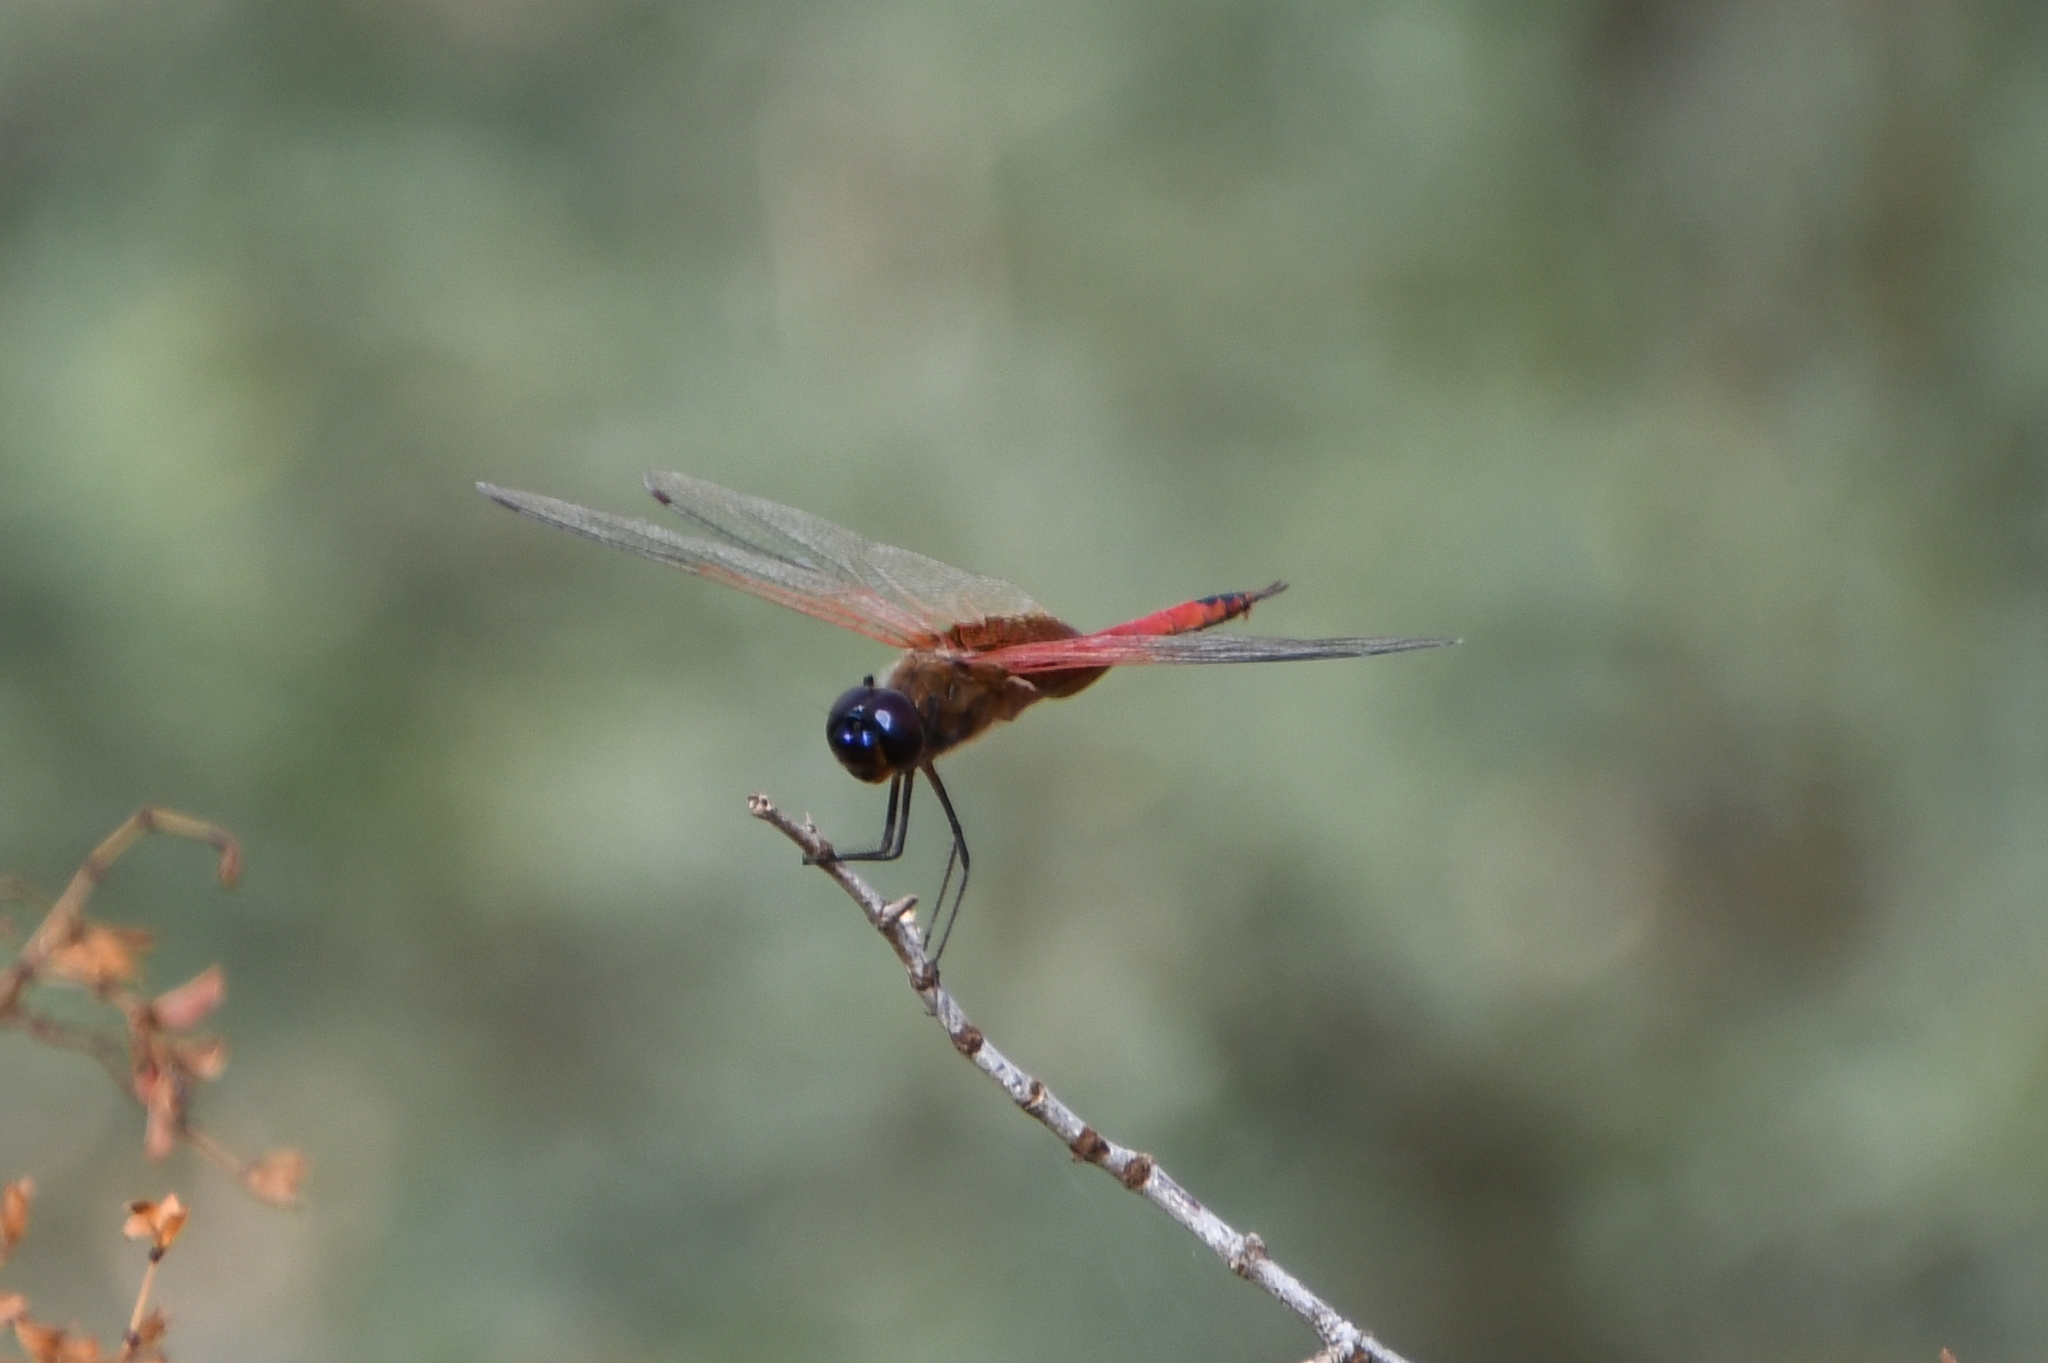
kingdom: Animalia
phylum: Arthropoda
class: Insecta
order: Odonata
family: Libellulidae
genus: Tramea
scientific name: Tramea insularis
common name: Antillean saddlebags
